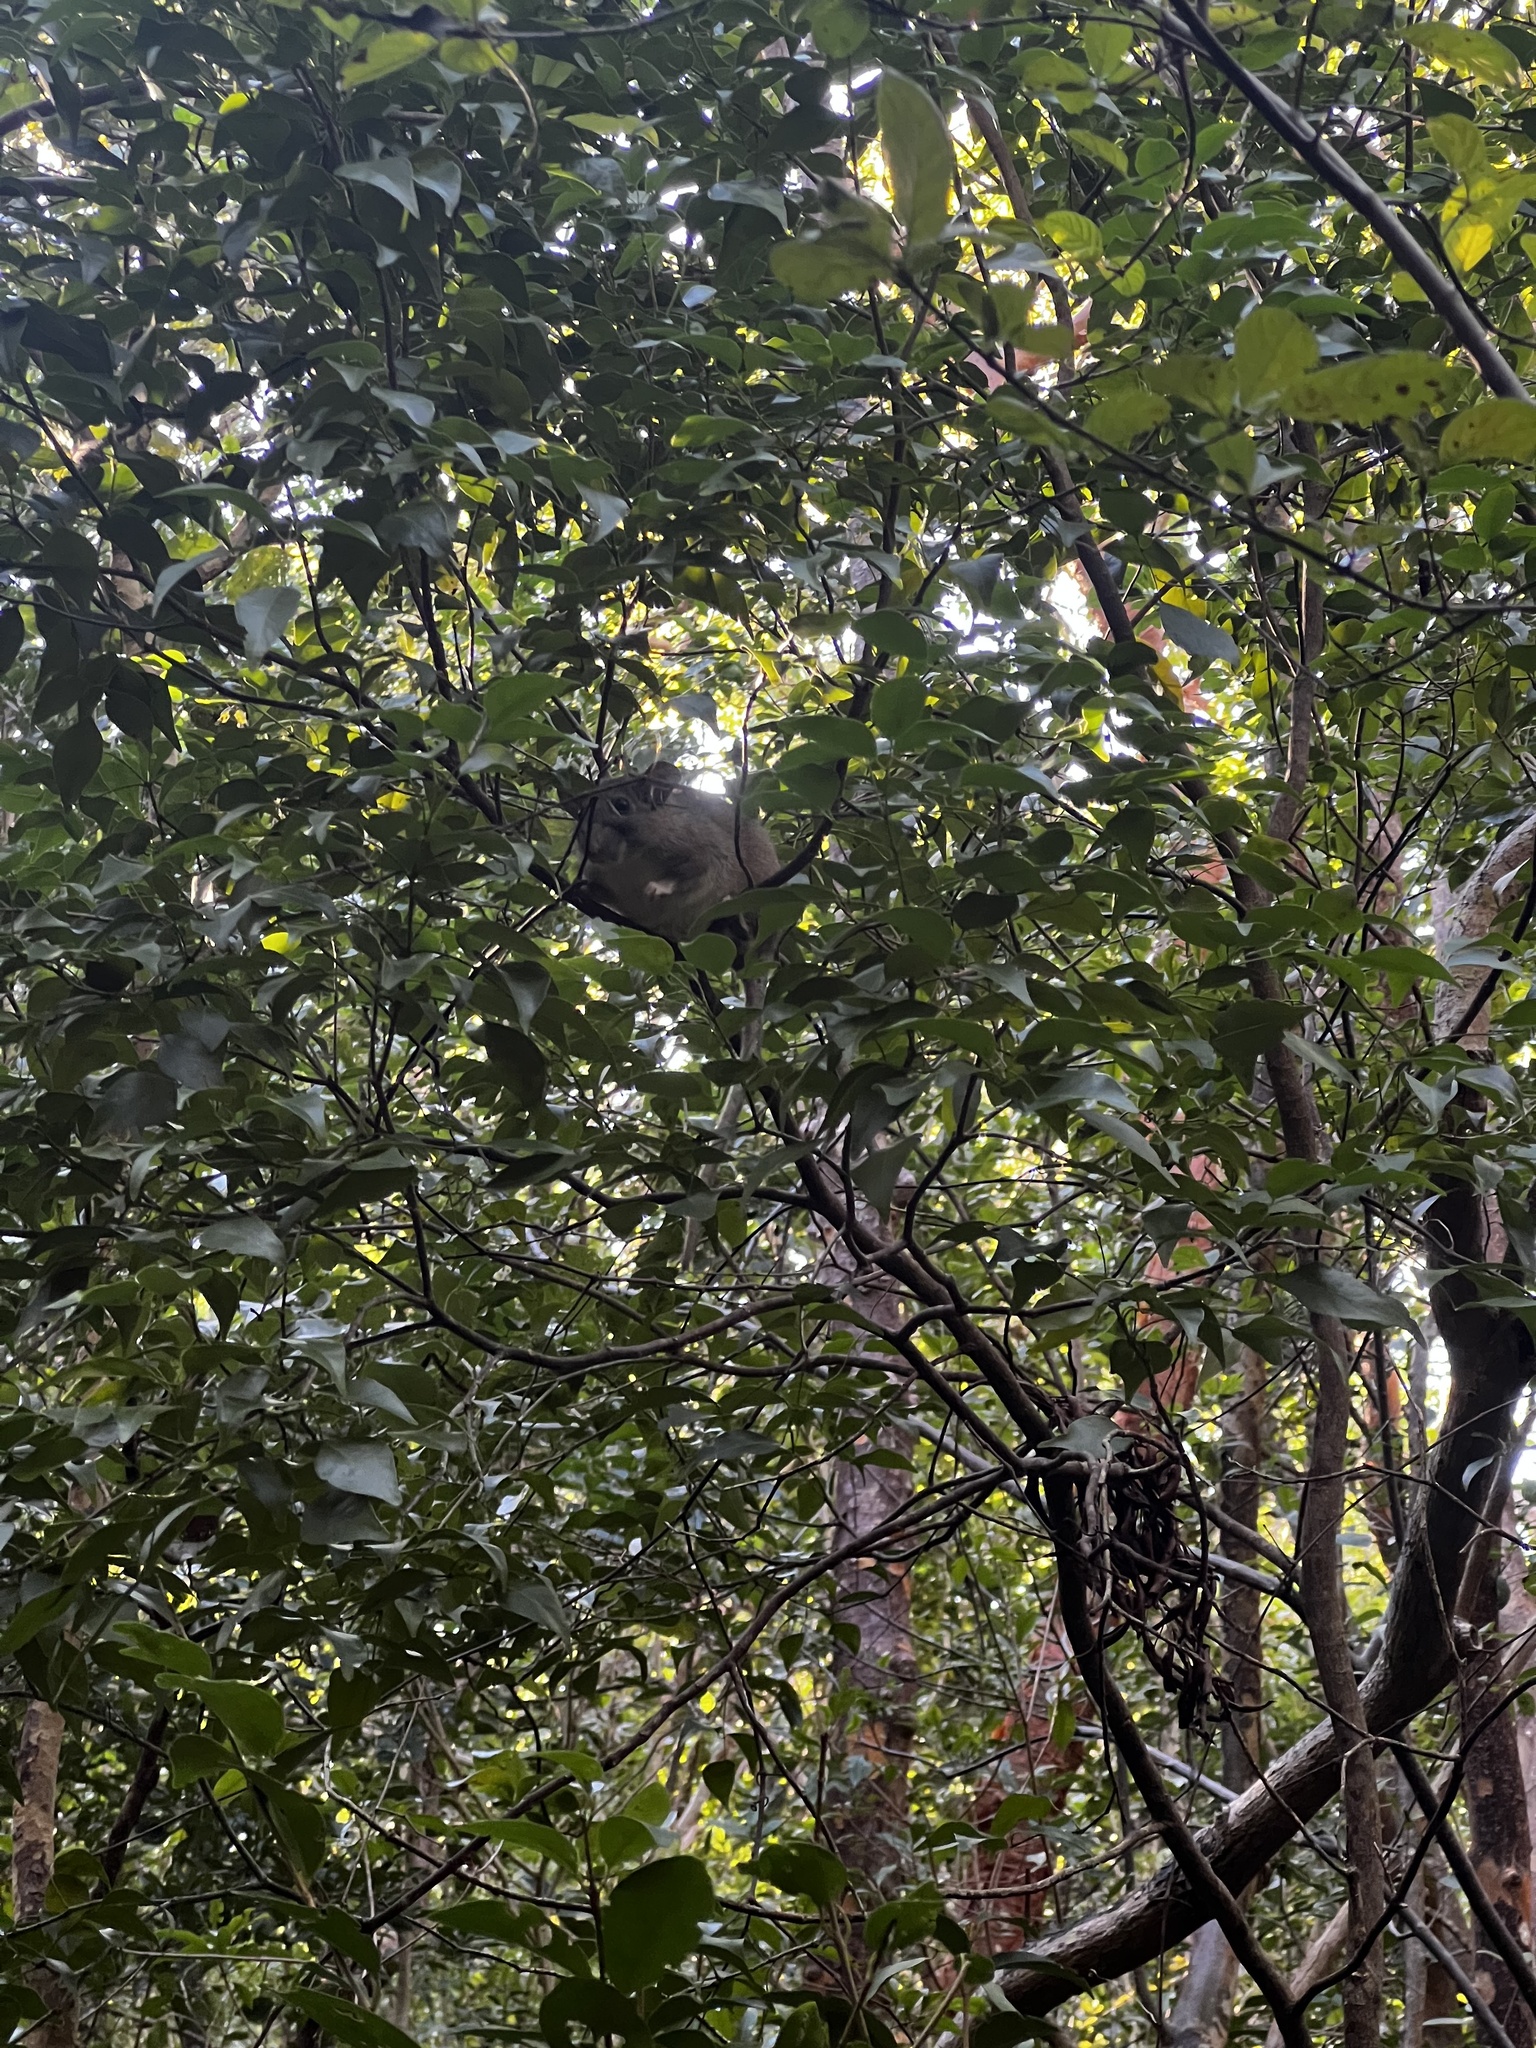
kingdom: Animalia
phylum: Chordata
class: Mammalia
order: Rodentia
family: Cricetidae
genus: Neotoma
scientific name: Neotoma floridana
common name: Eastern woodrat
